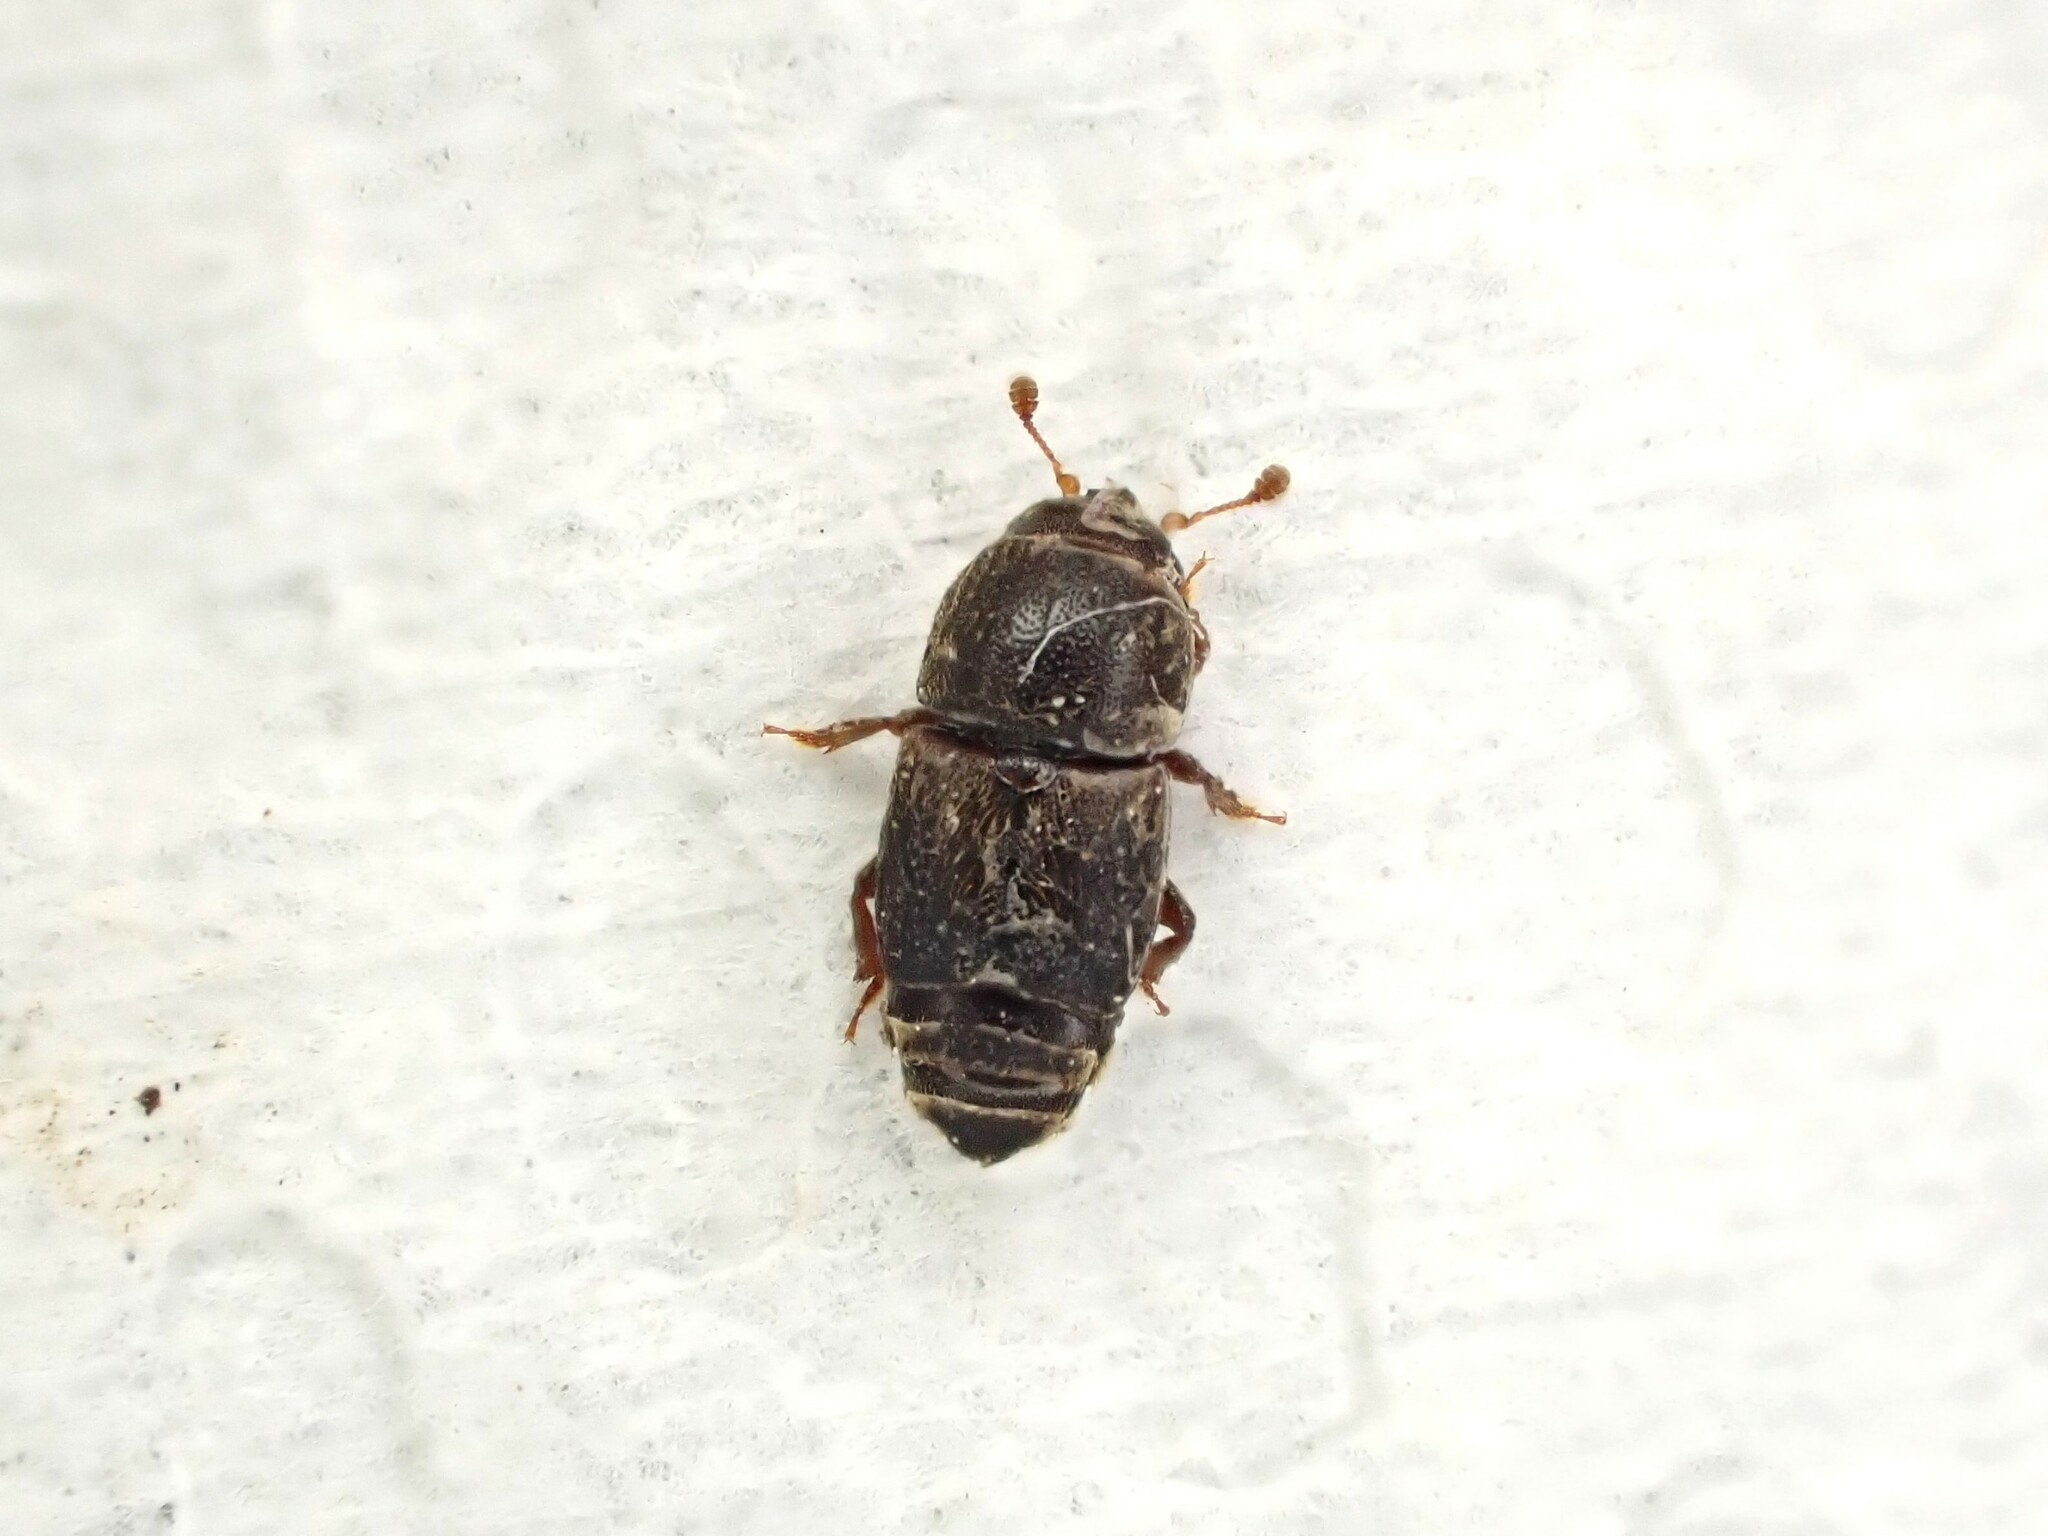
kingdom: Animalia
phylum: Arthropoda
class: Insecta
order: Coleoptera
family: Nitidulidae
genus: Urophorus
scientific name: Urophorus humeralis
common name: Sap beetle
